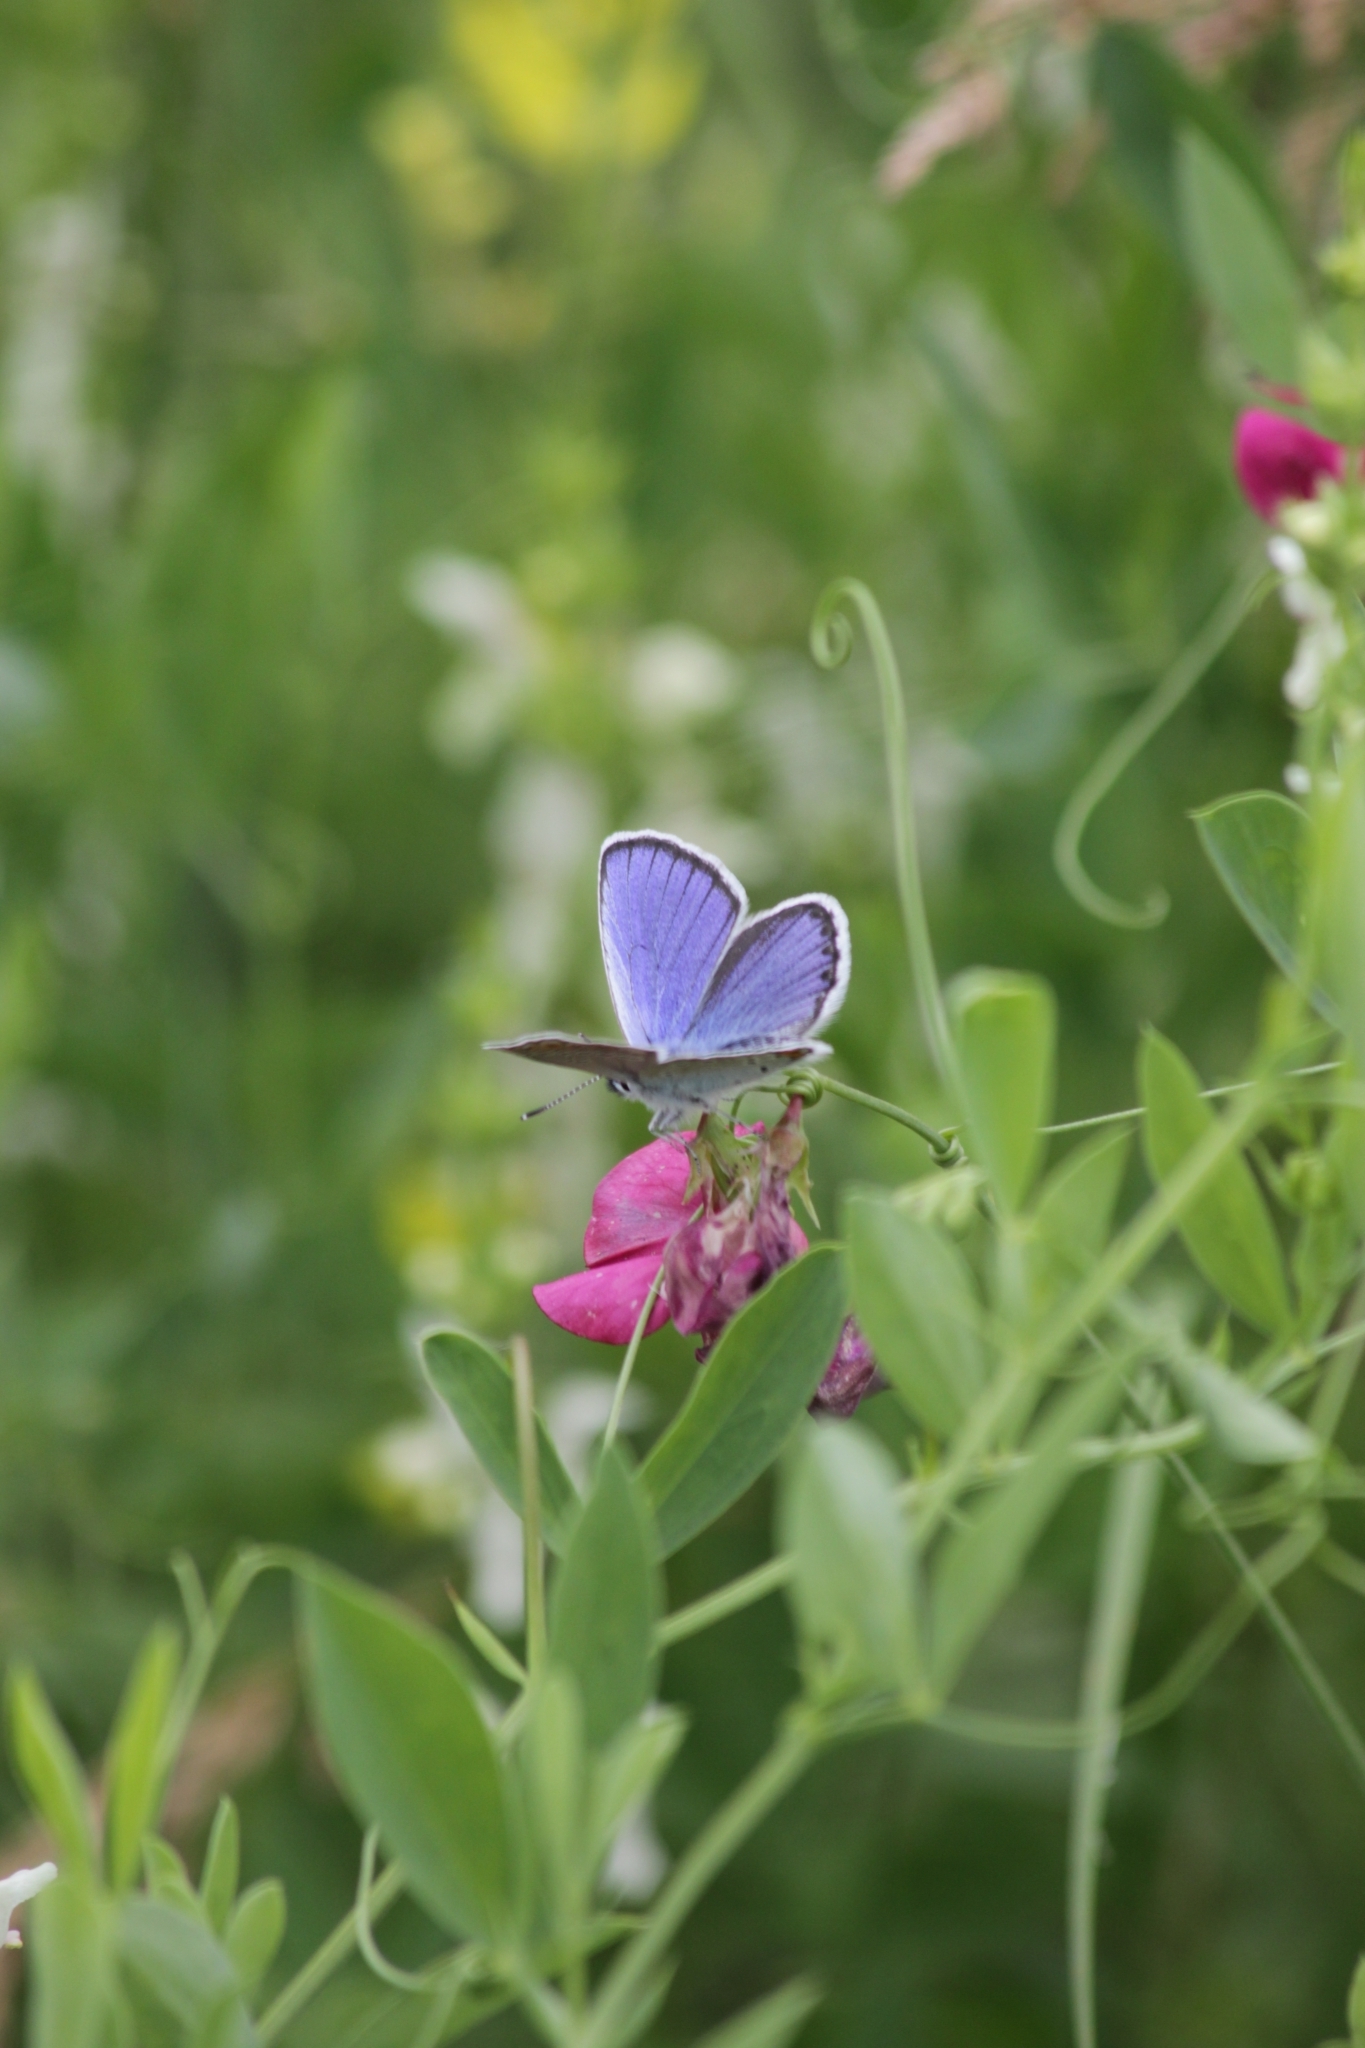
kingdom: Animalia
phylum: Arthropoda
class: Insecta
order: Lepidoptera
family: Lycaenidae
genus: Elkalyce
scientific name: Elkalyce argiades
